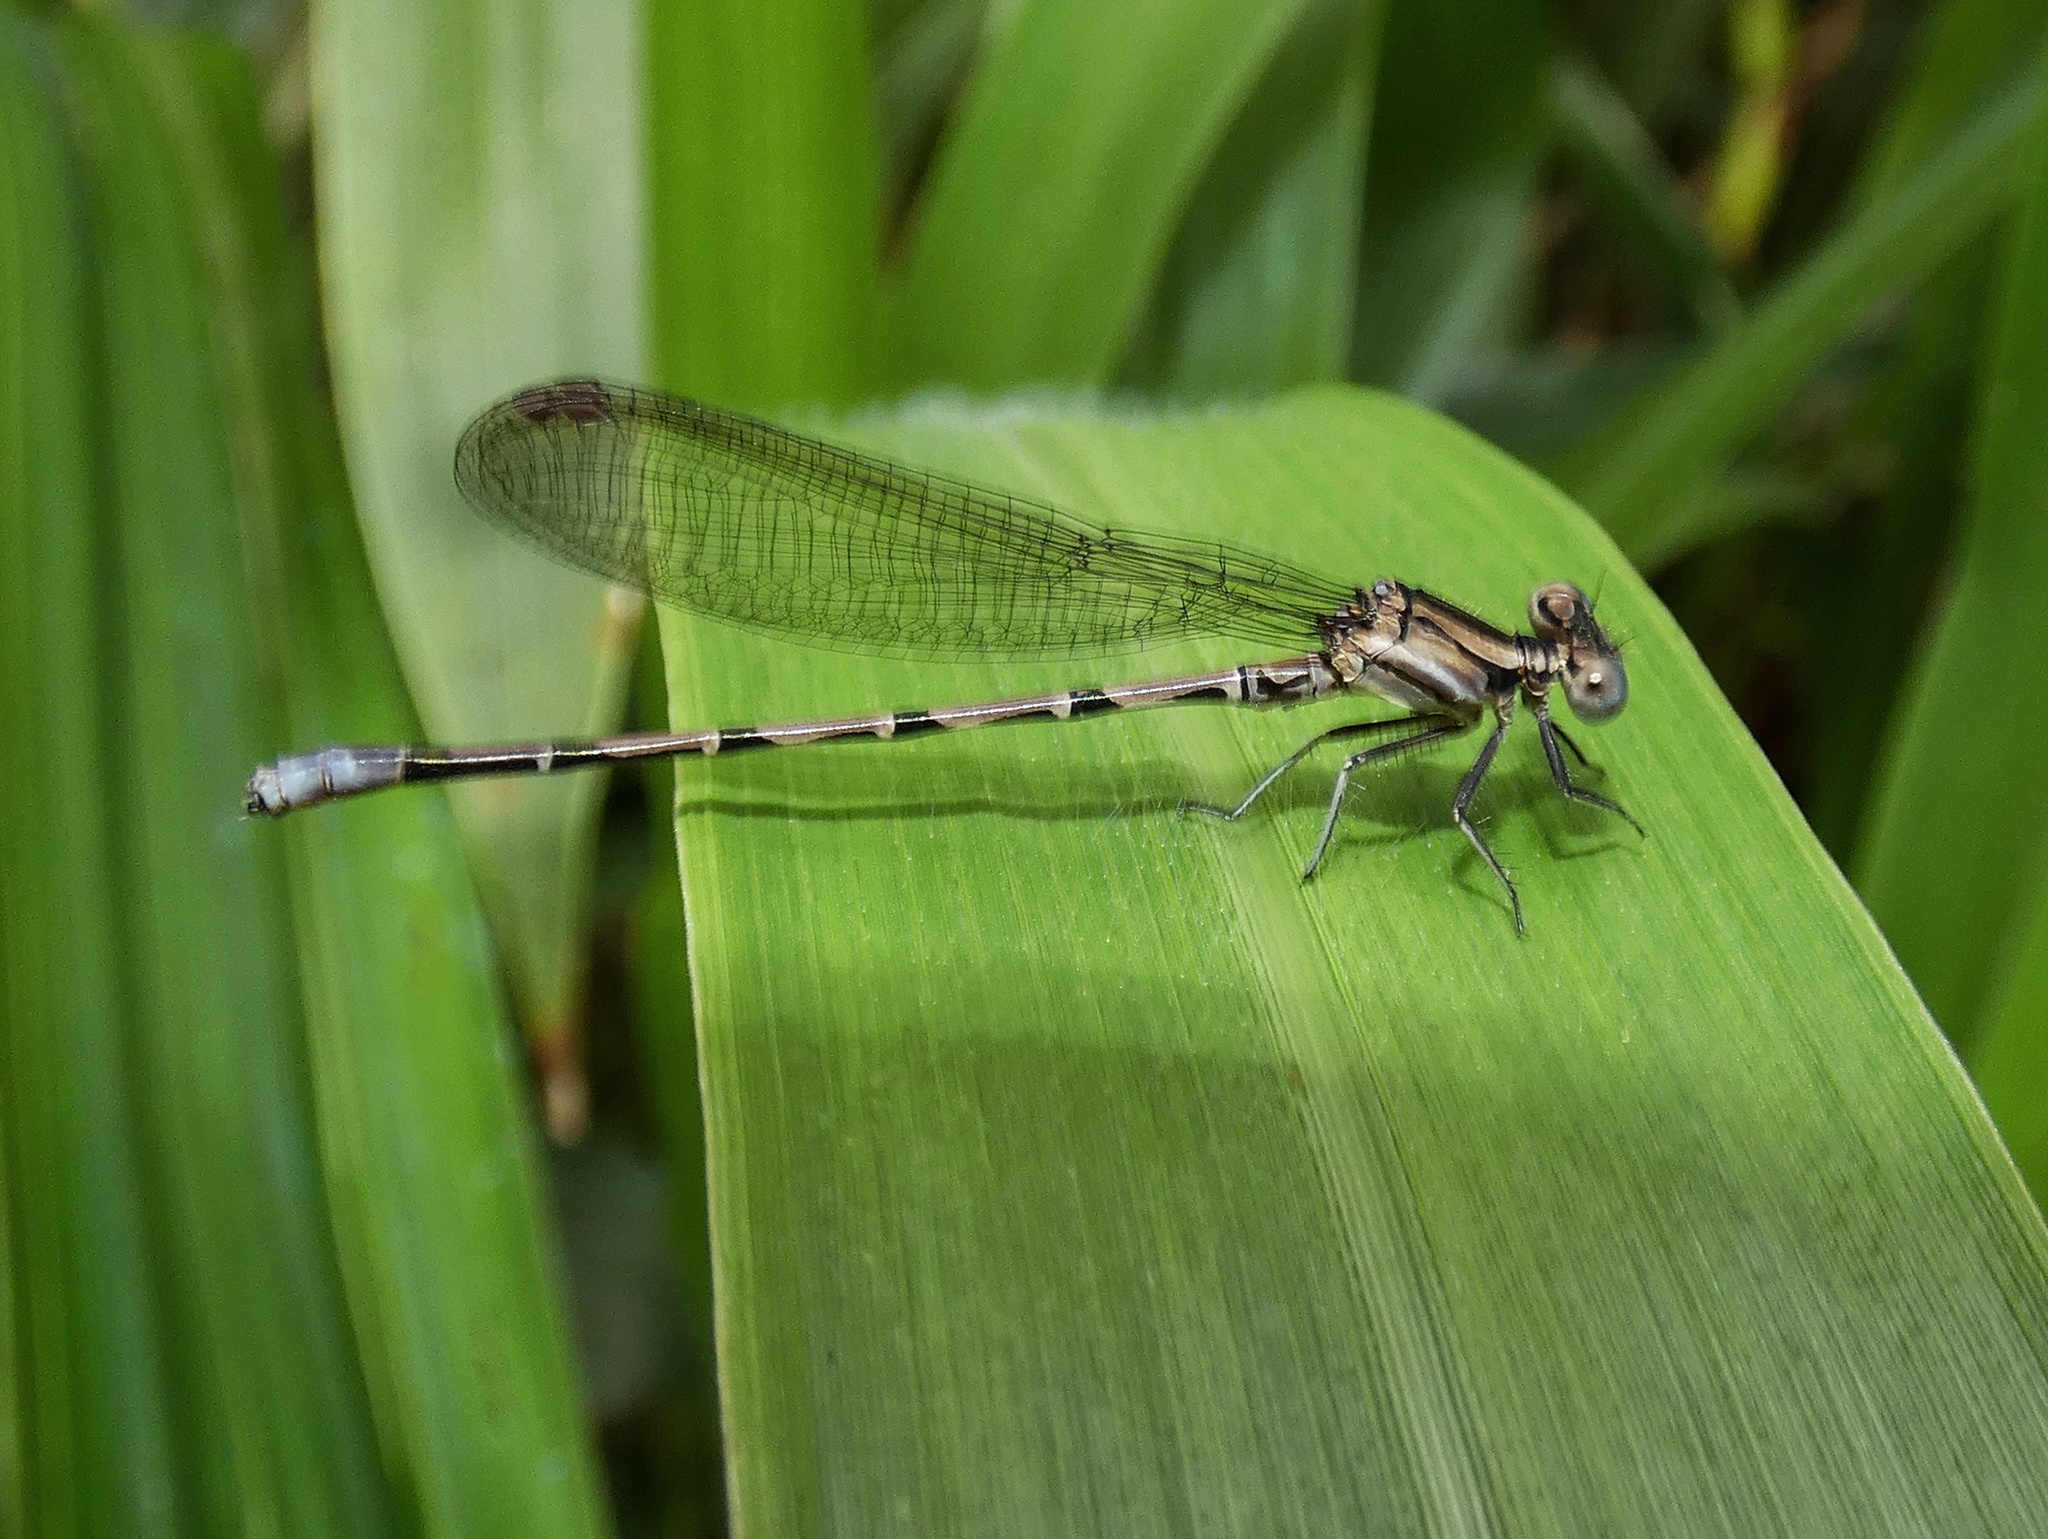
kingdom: Animalia
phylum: Arthropoda
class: Insecta
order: Odonata
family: Coenagrionidae
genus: Argia
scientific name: Argia elongata
